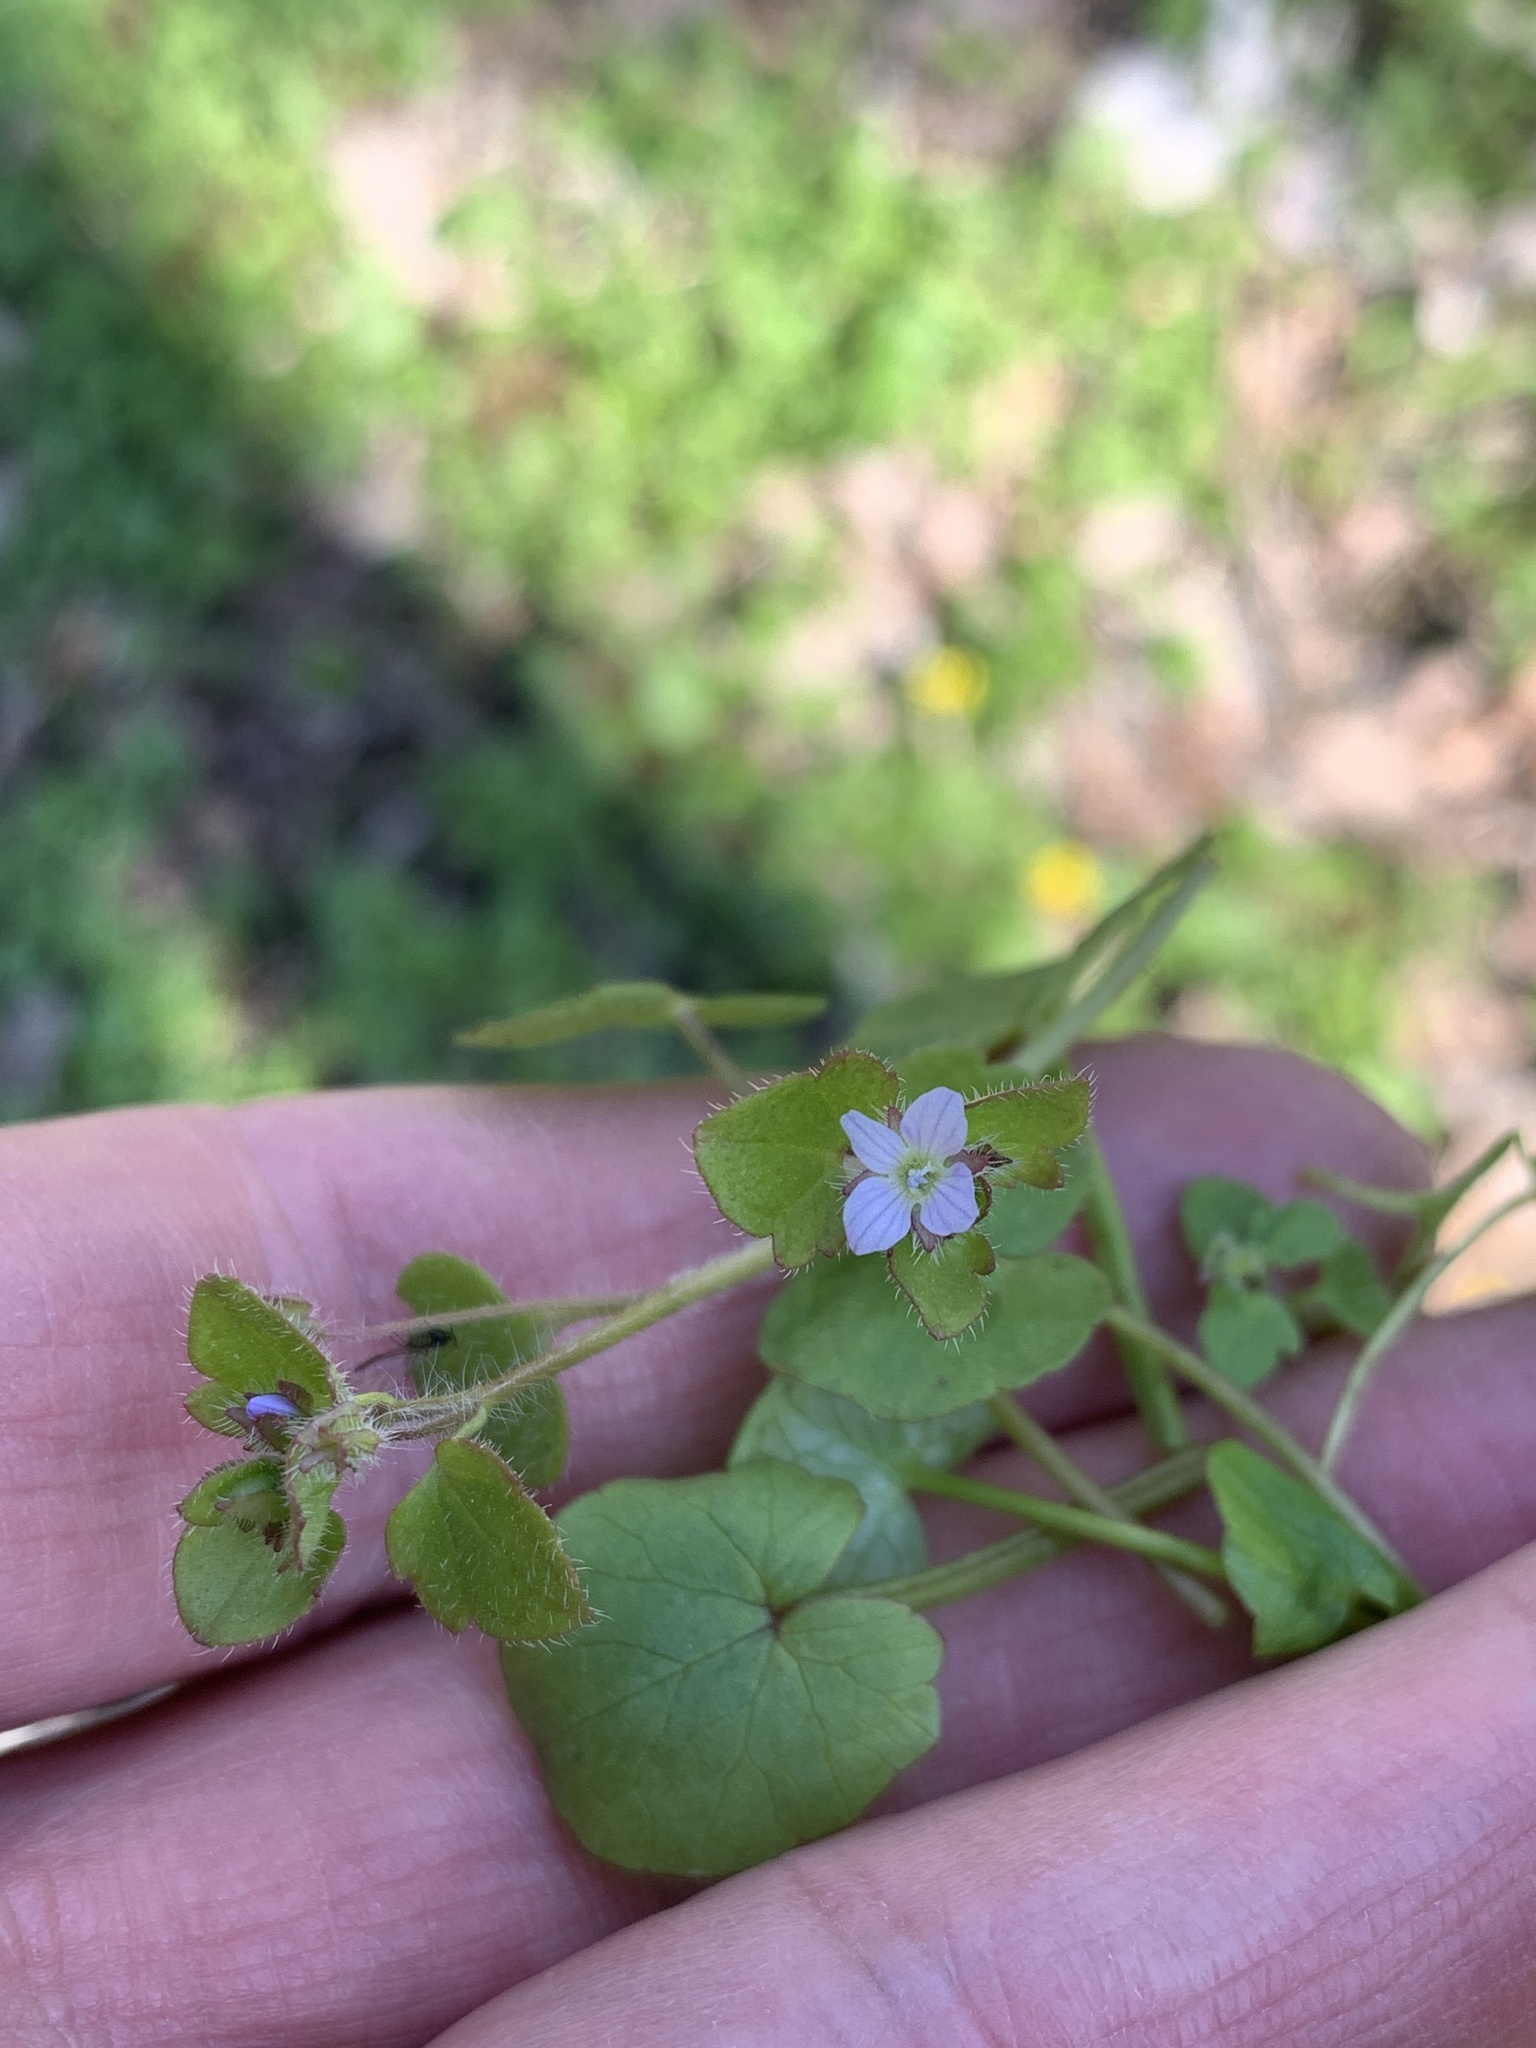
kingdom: Plantae
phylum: Tracheophyta
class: Magnoliopsida
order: Lamiales
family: Plantaginaceae
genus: Veronica
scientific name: Veronica sublobata
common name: False ivy-leaved speedwell
